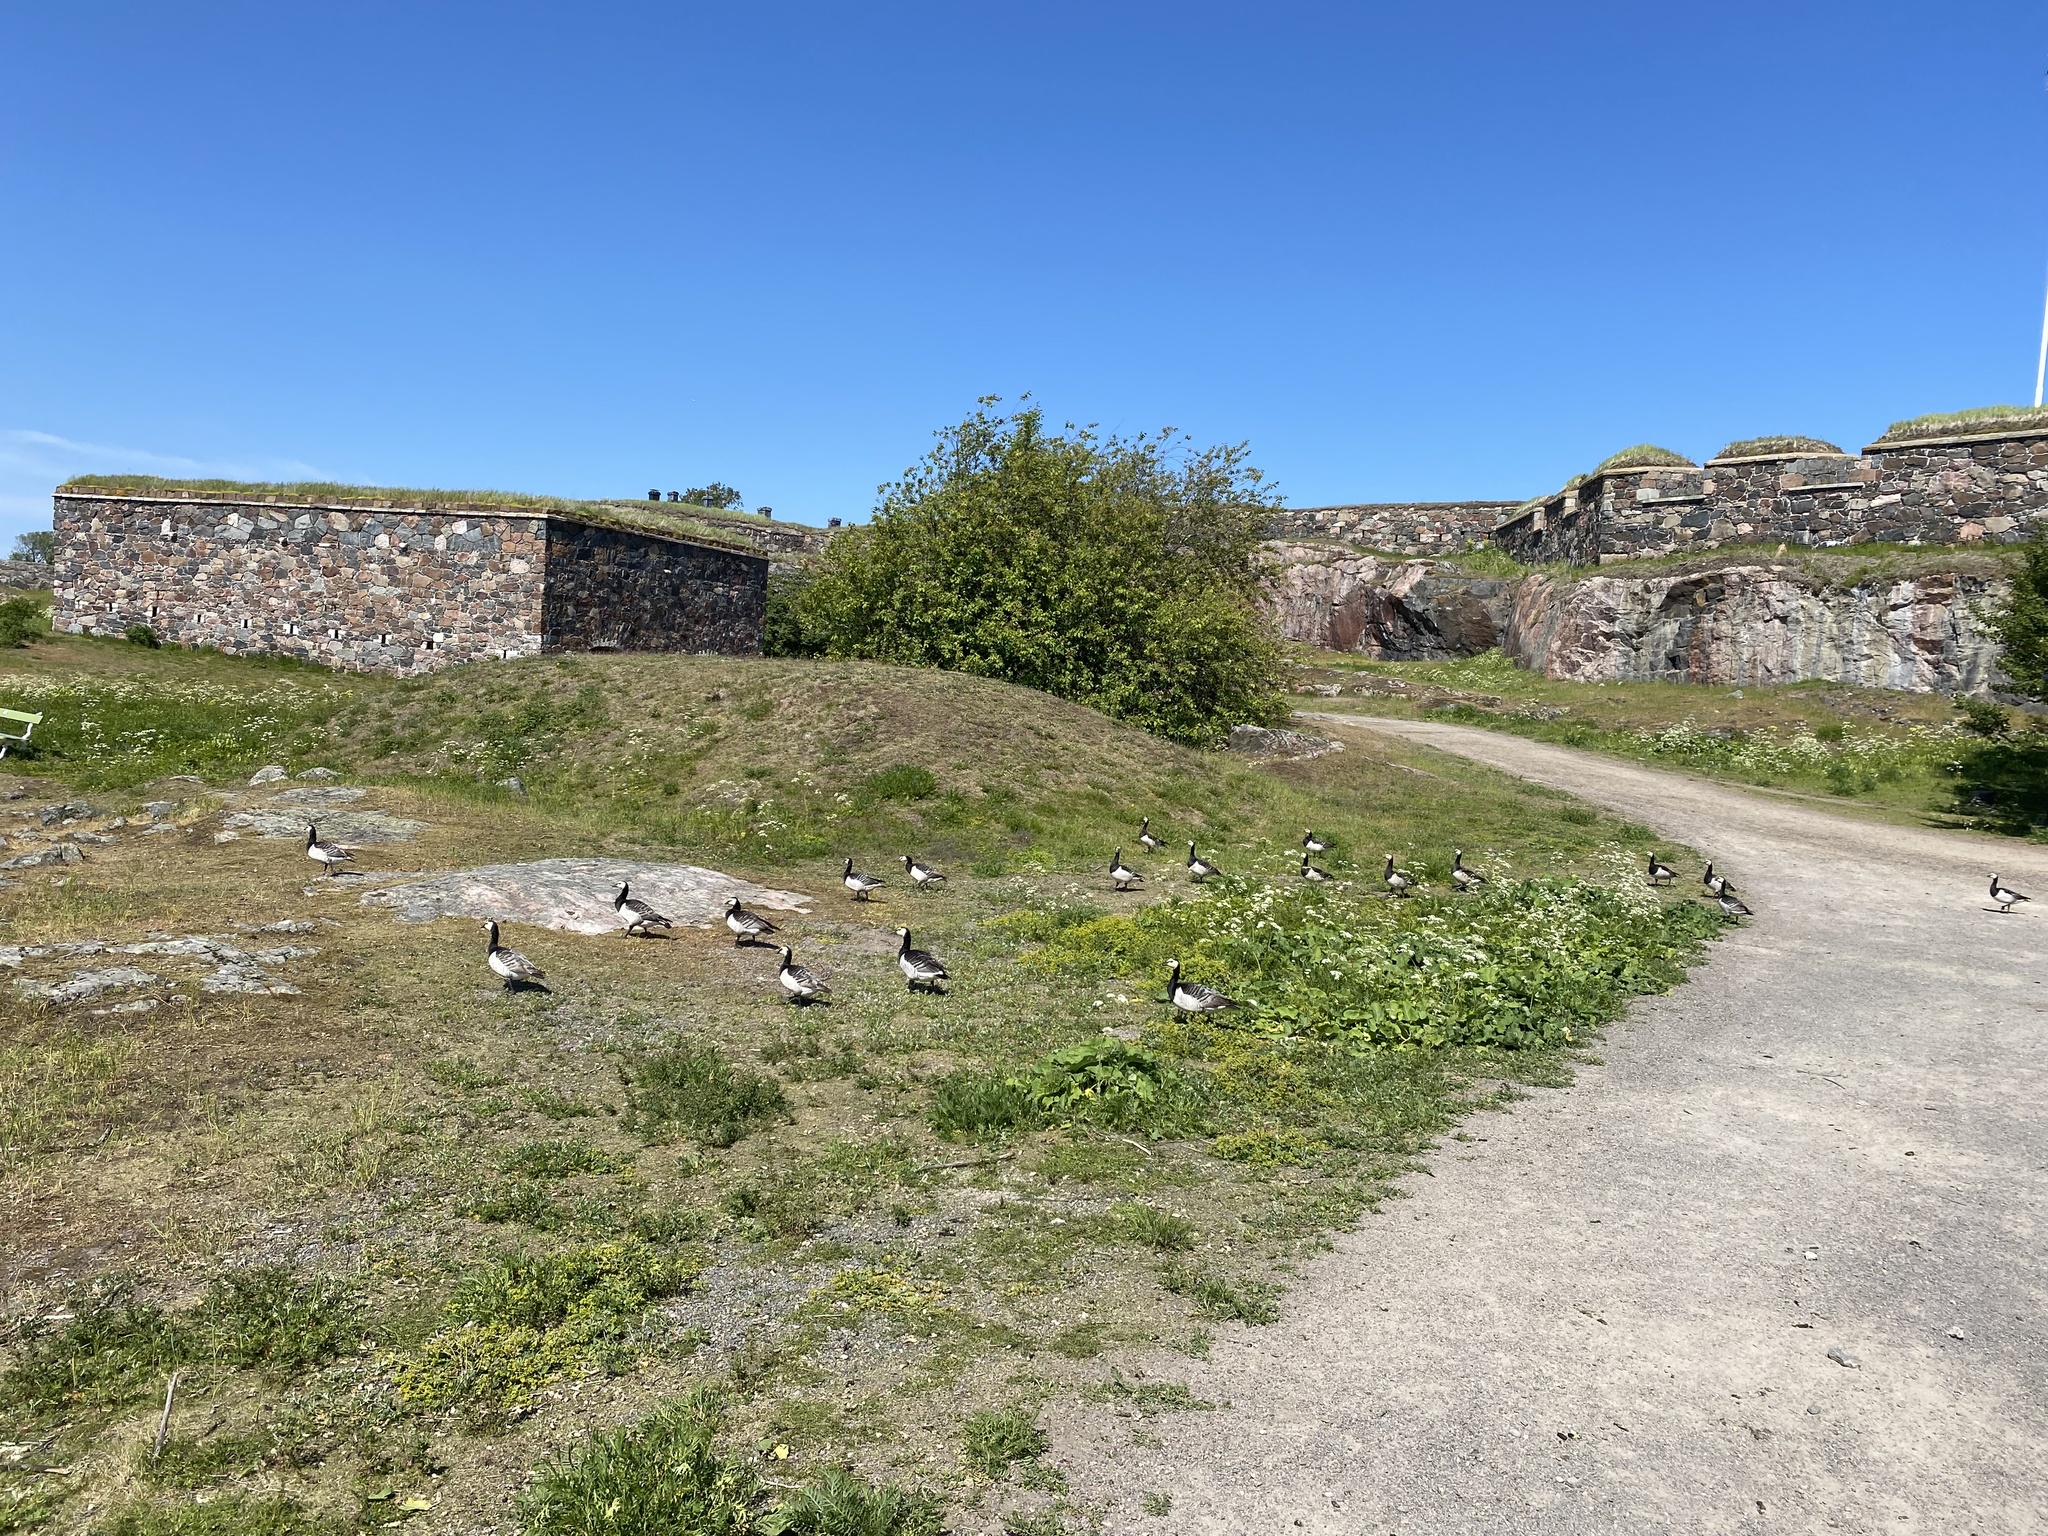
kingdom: Animalia
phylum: Chordata
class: Aves
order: Anseriformes
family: Anatidae
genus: Branta
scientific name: Branta leucopsis
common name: Barnacle goose
